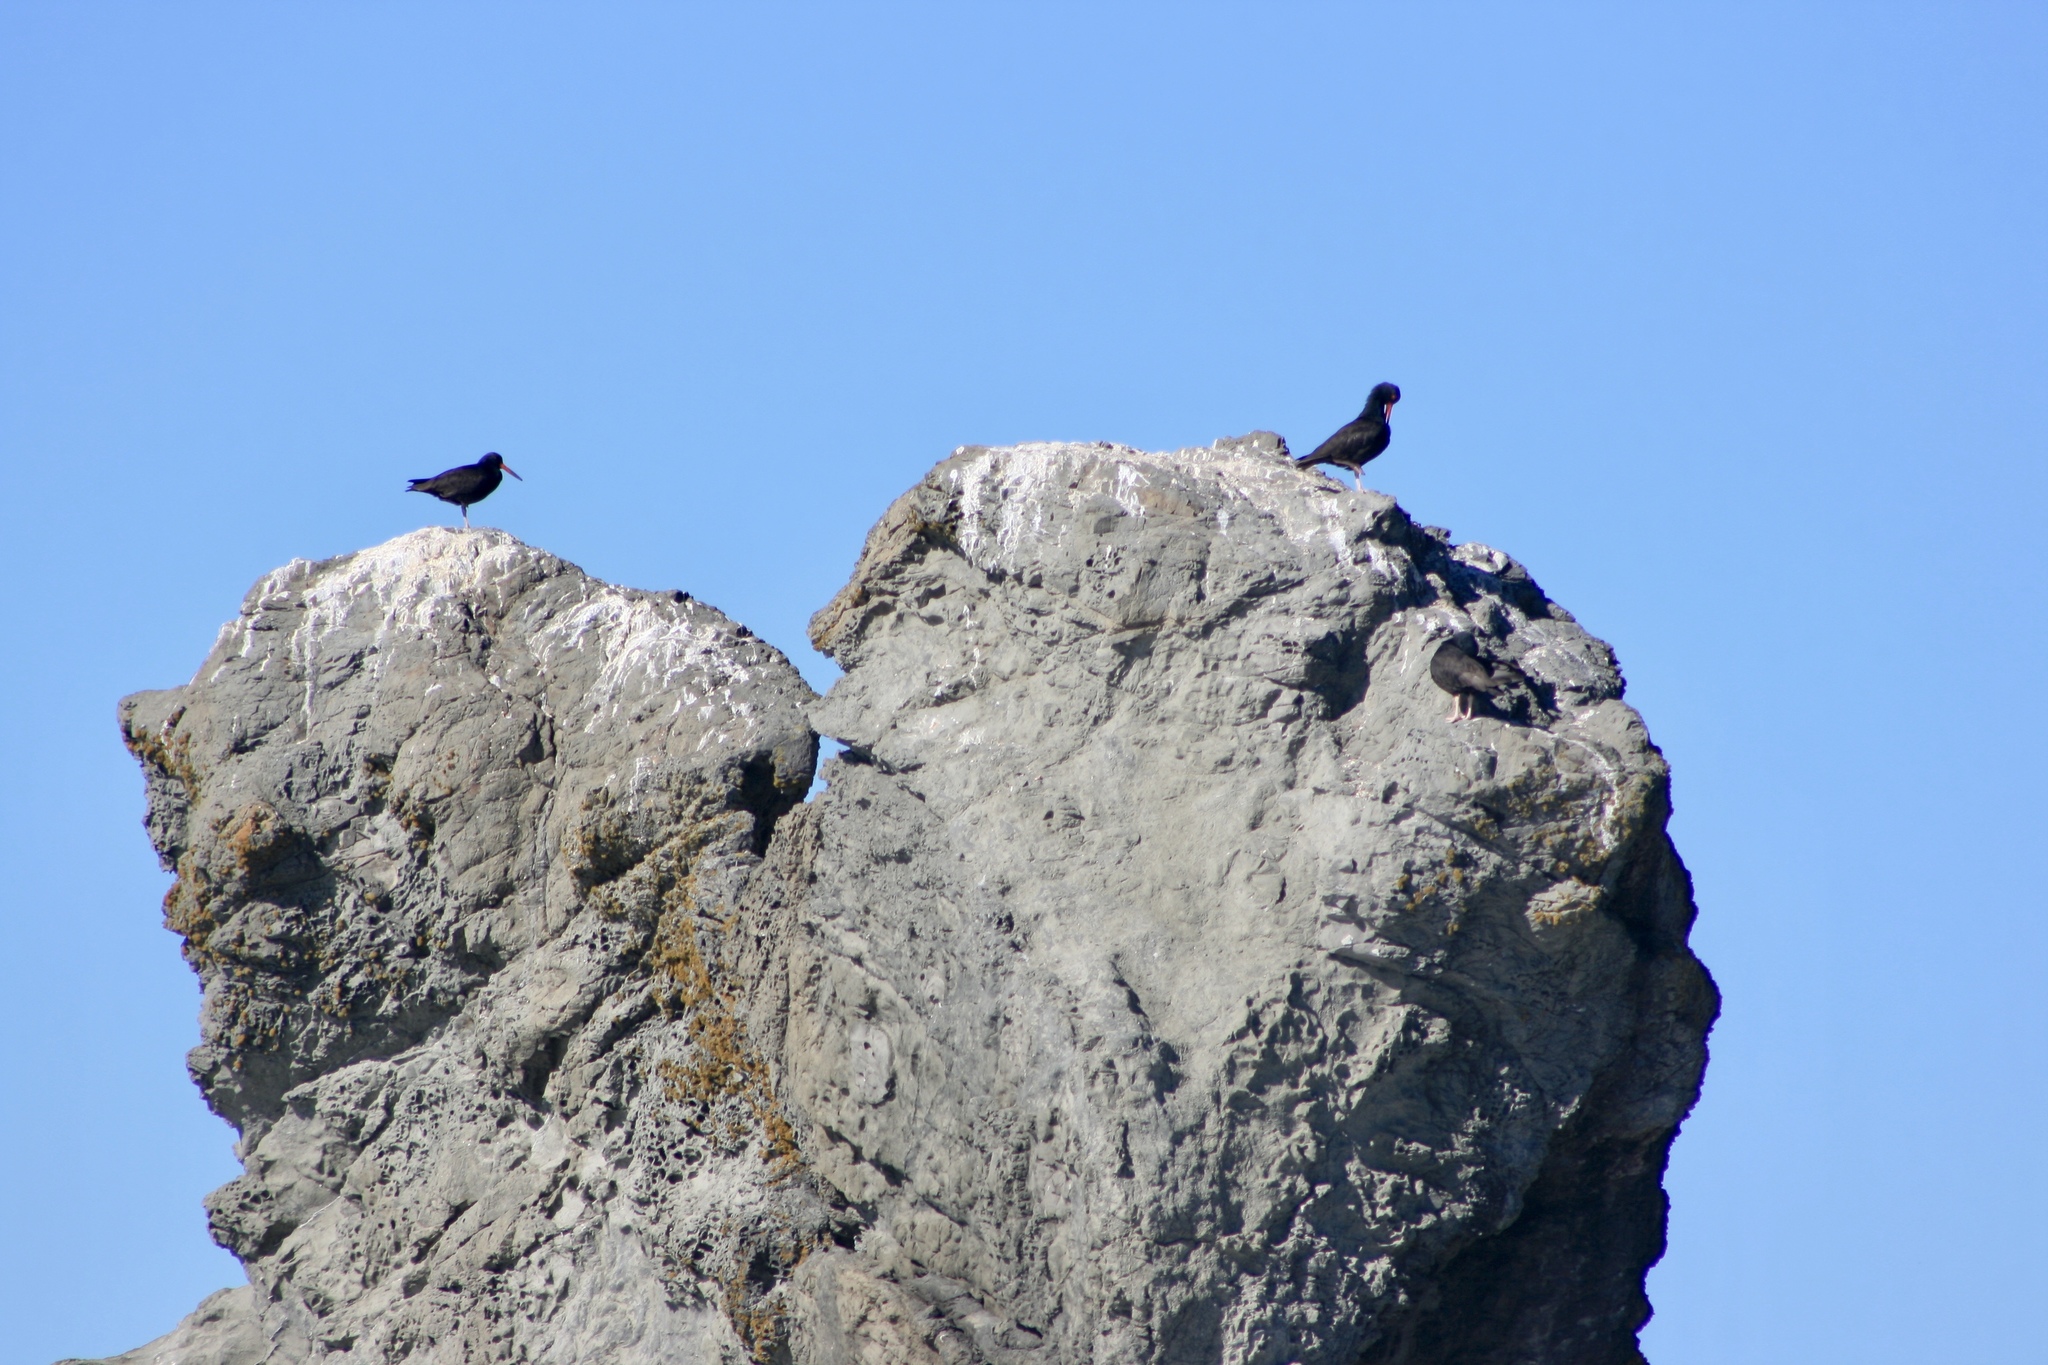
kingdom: Animalia
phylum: Chordata
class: Aves
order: Charadriiformes
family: Haematopodidae
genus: Haematopus
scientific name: Haematopus bachmani
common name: Black oystercatcher
